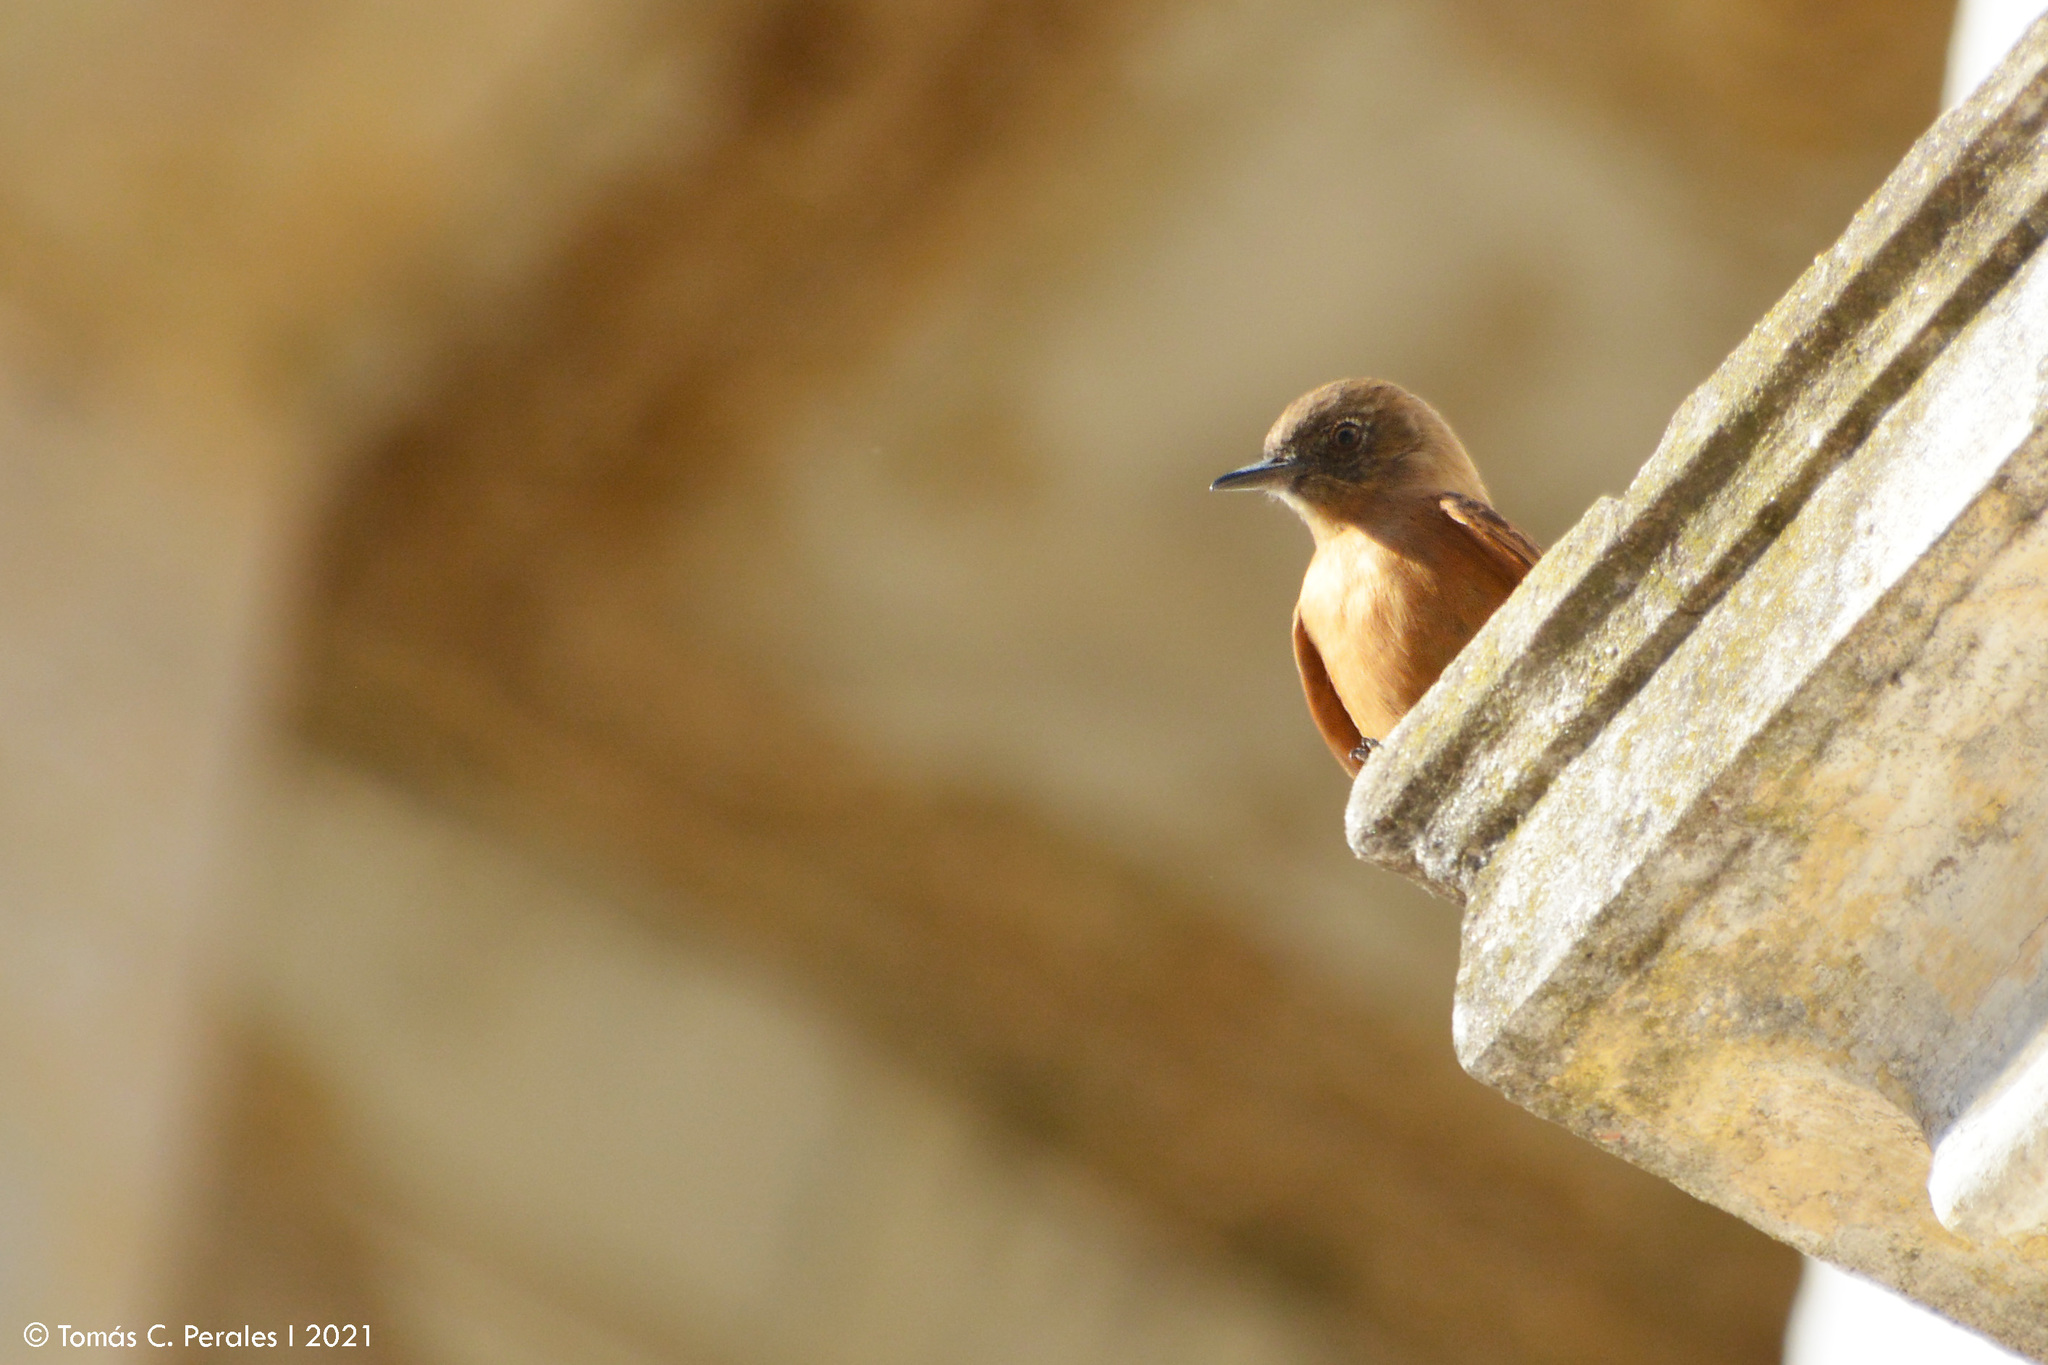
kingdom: Animalia
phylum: Chordata
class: Aves
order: Passeriformes
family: Tyrannidae
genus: Hirundinea
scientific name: Hirundinea ferruginea
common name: Cliff flycatcher
